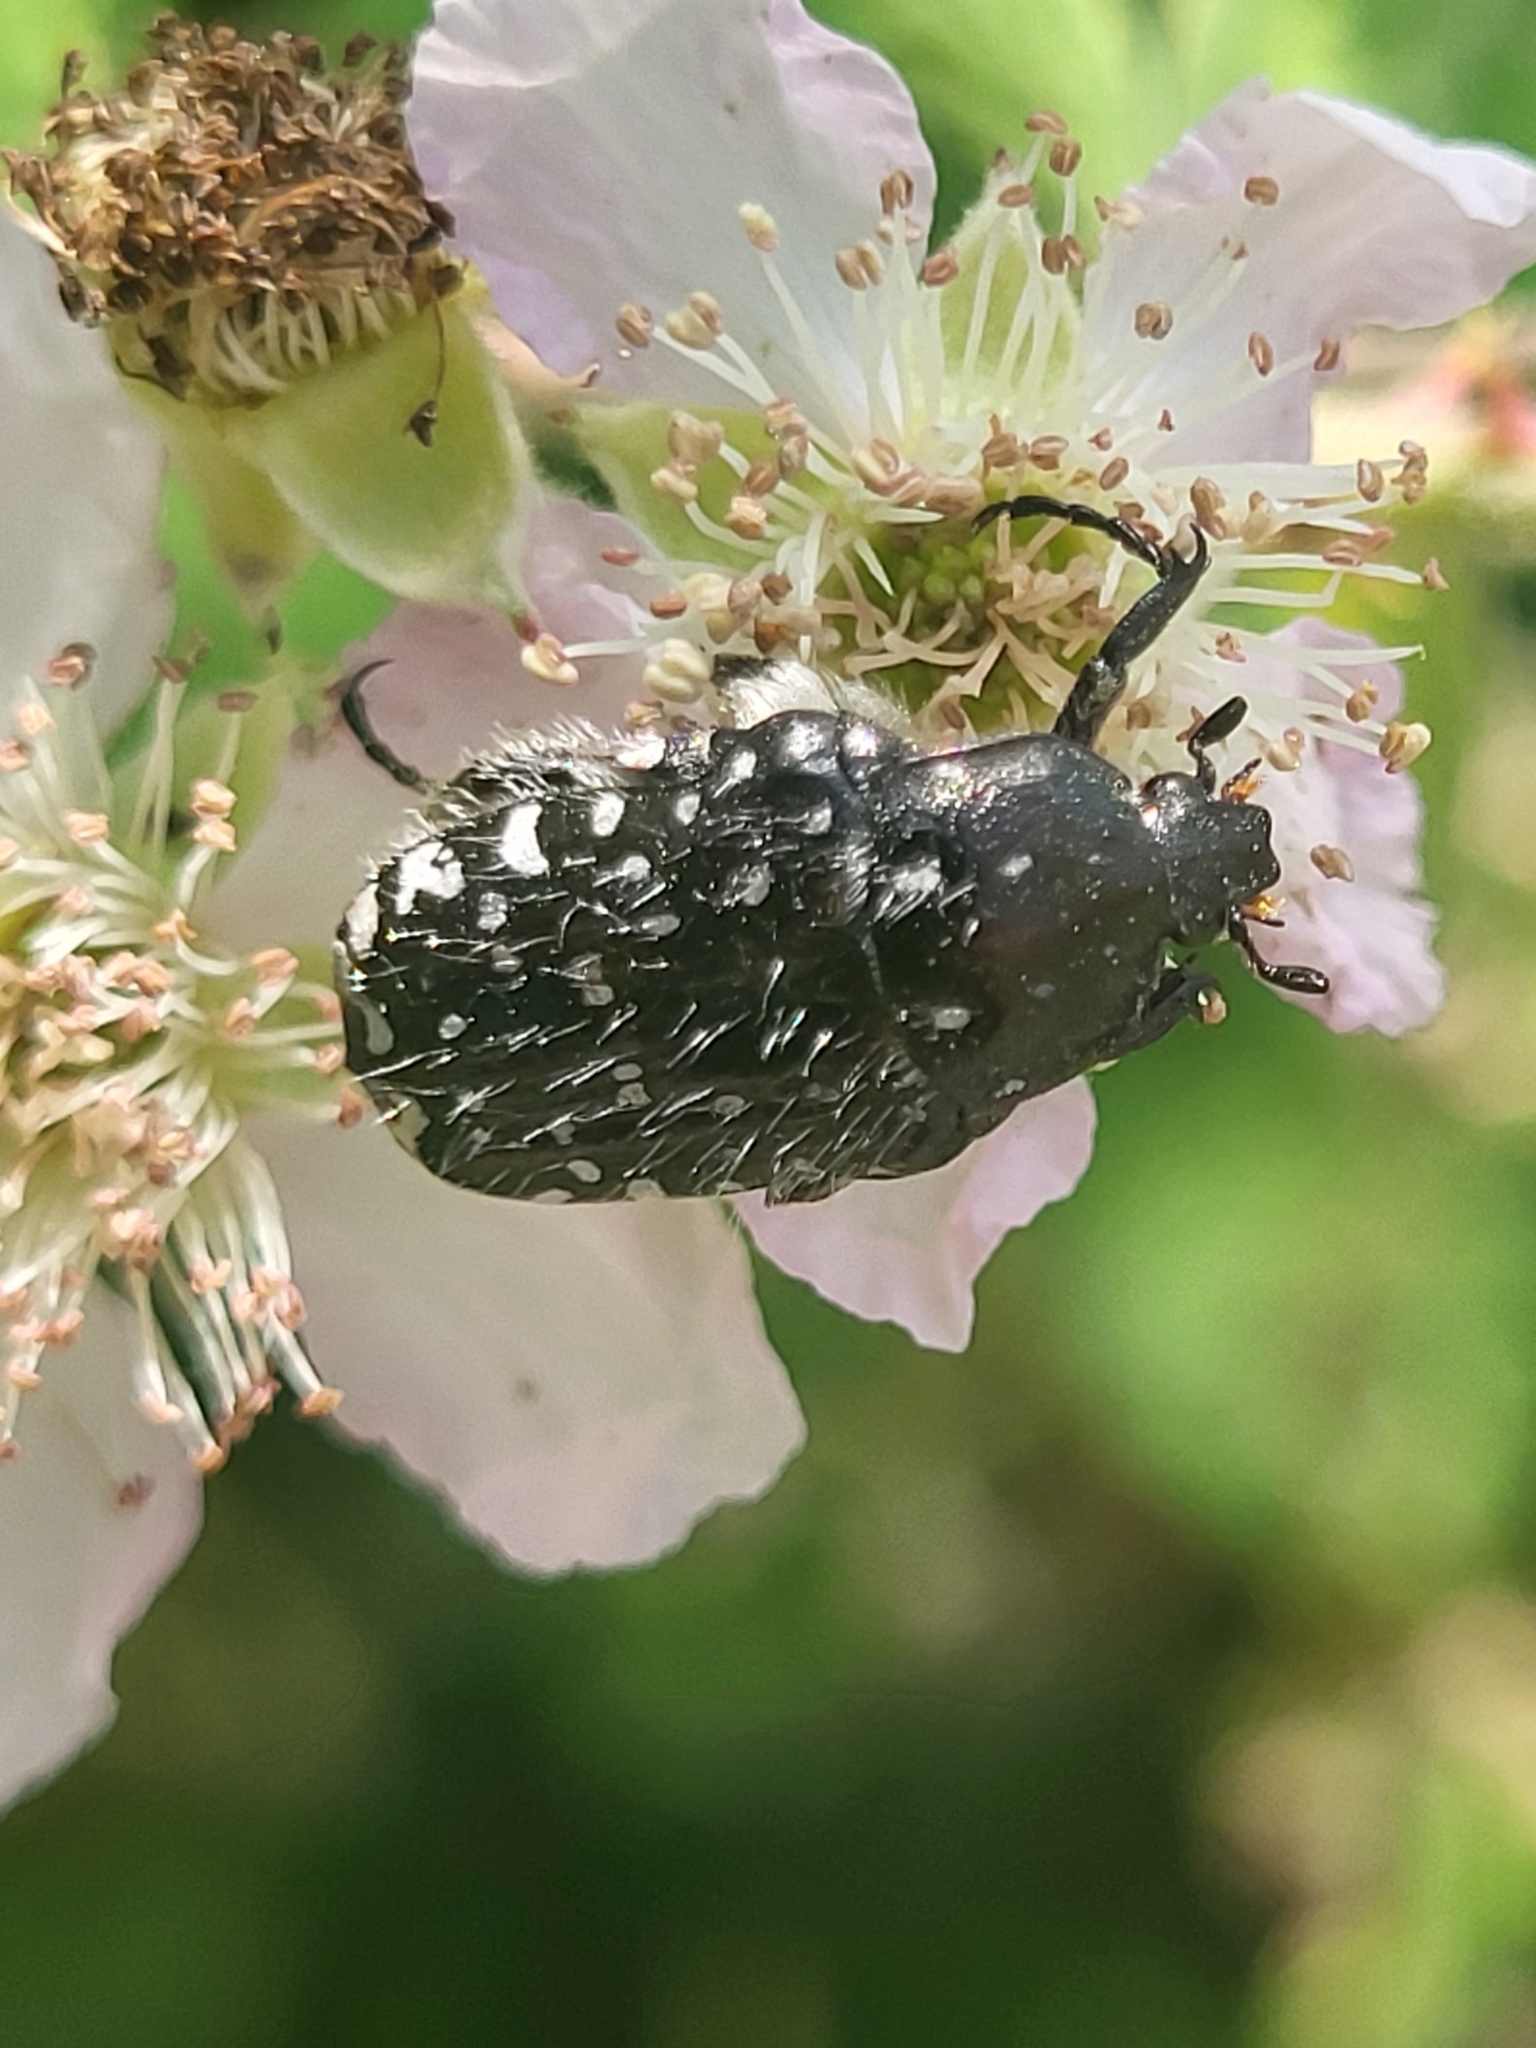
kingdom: Animalia
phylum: Arthropoda
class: Insecta
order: Coleoptera
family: Scarabaeidae
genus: Oxythyrea
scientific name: Oxythyrea funesta
